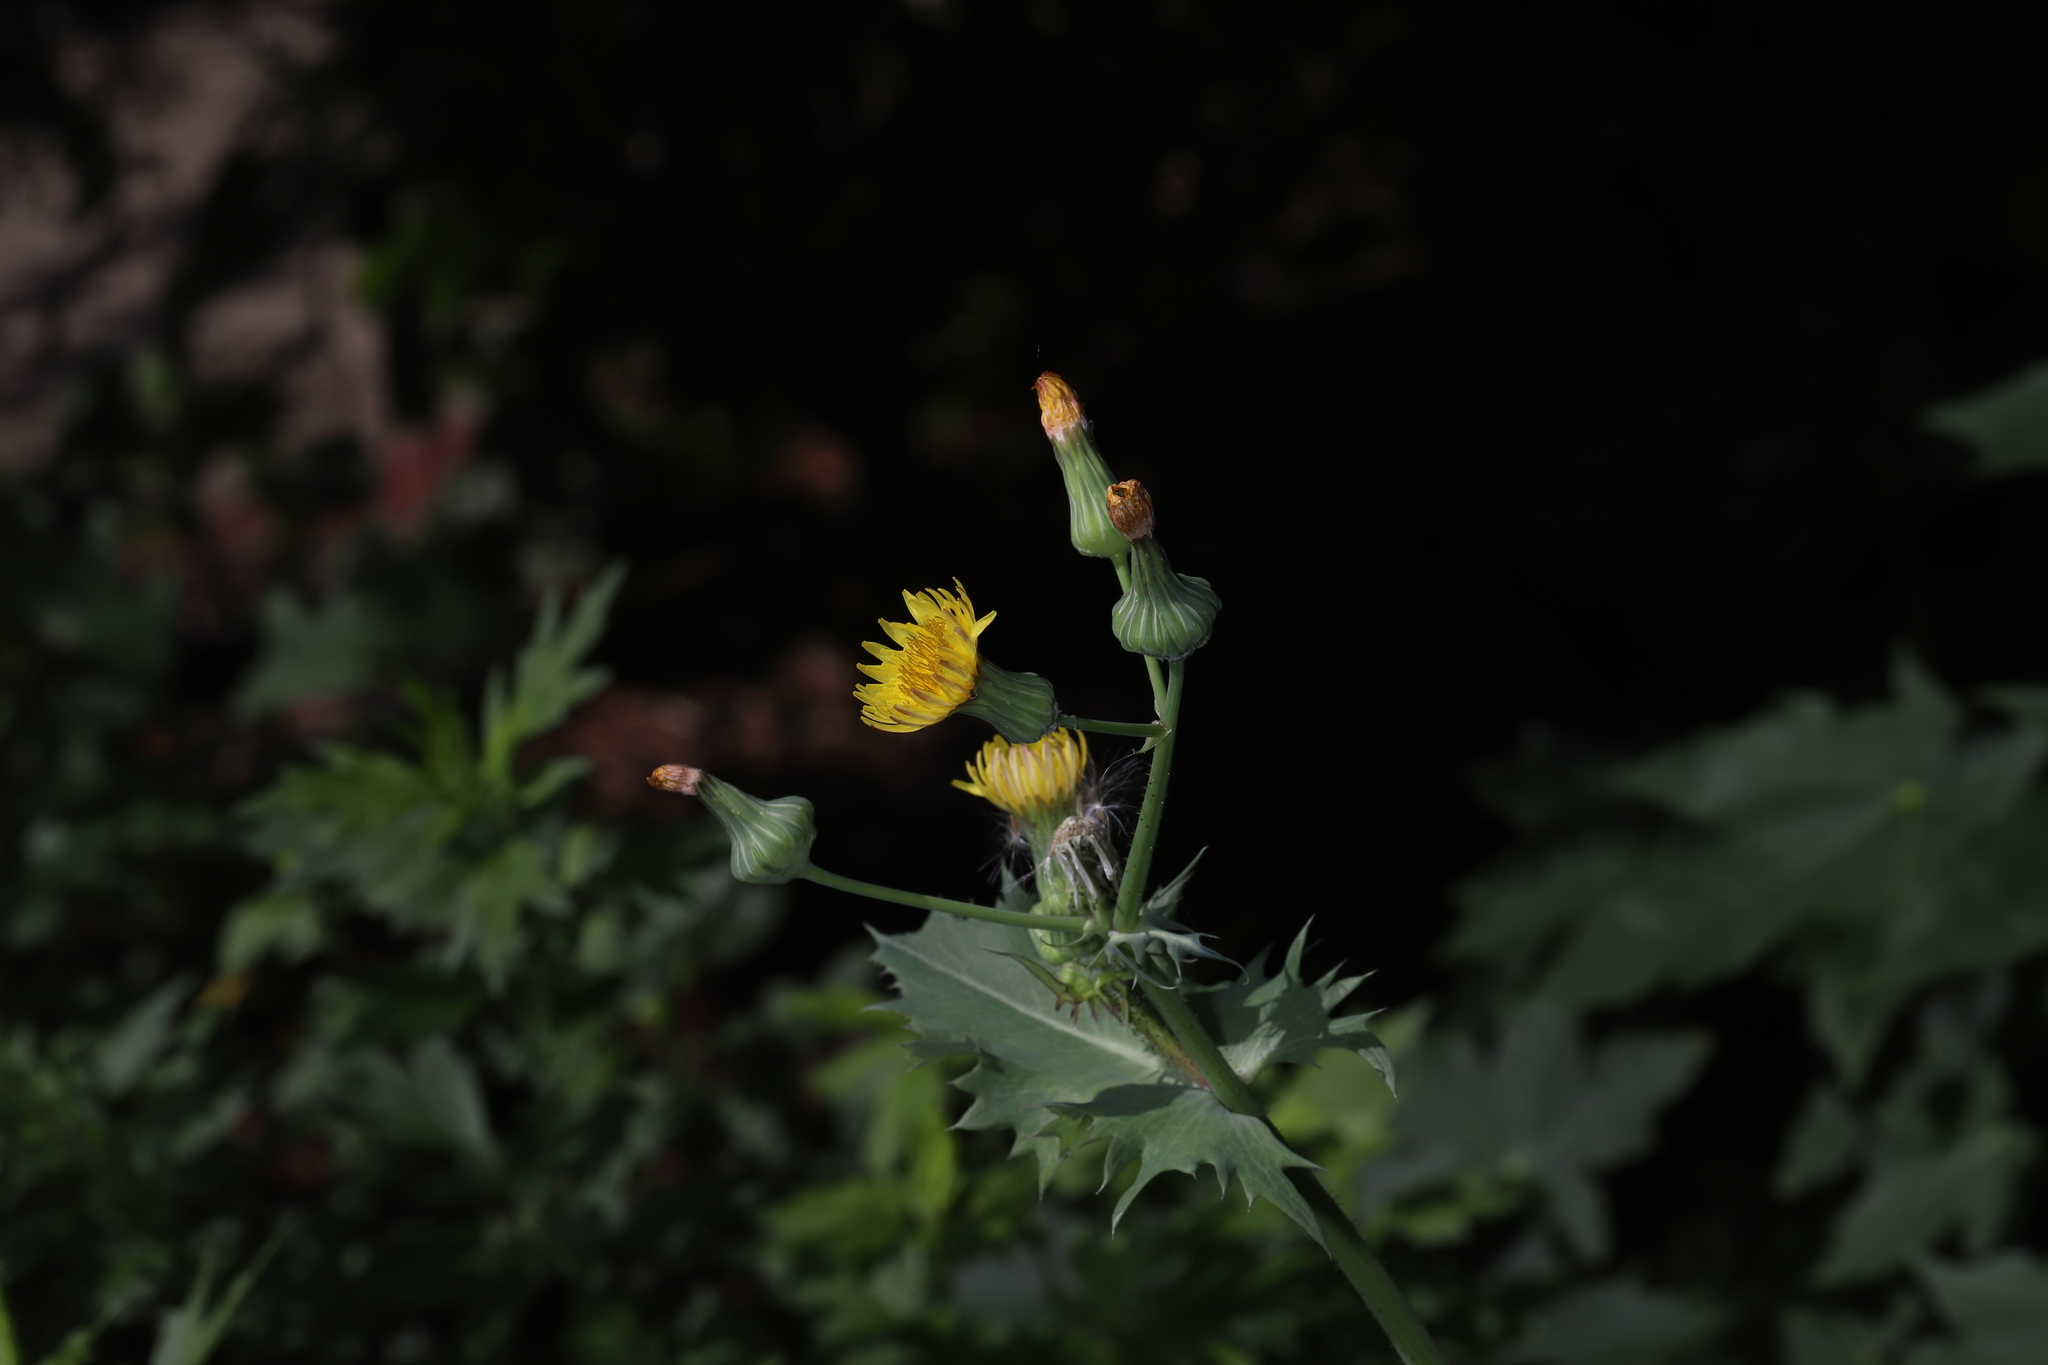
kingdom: Plantae
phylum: Tracheophyta
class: Magnoliopsida
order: Asterales
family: Asteraceae
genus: Sonchus
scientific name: Sonchus asper
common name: Prickly sow-thistle
